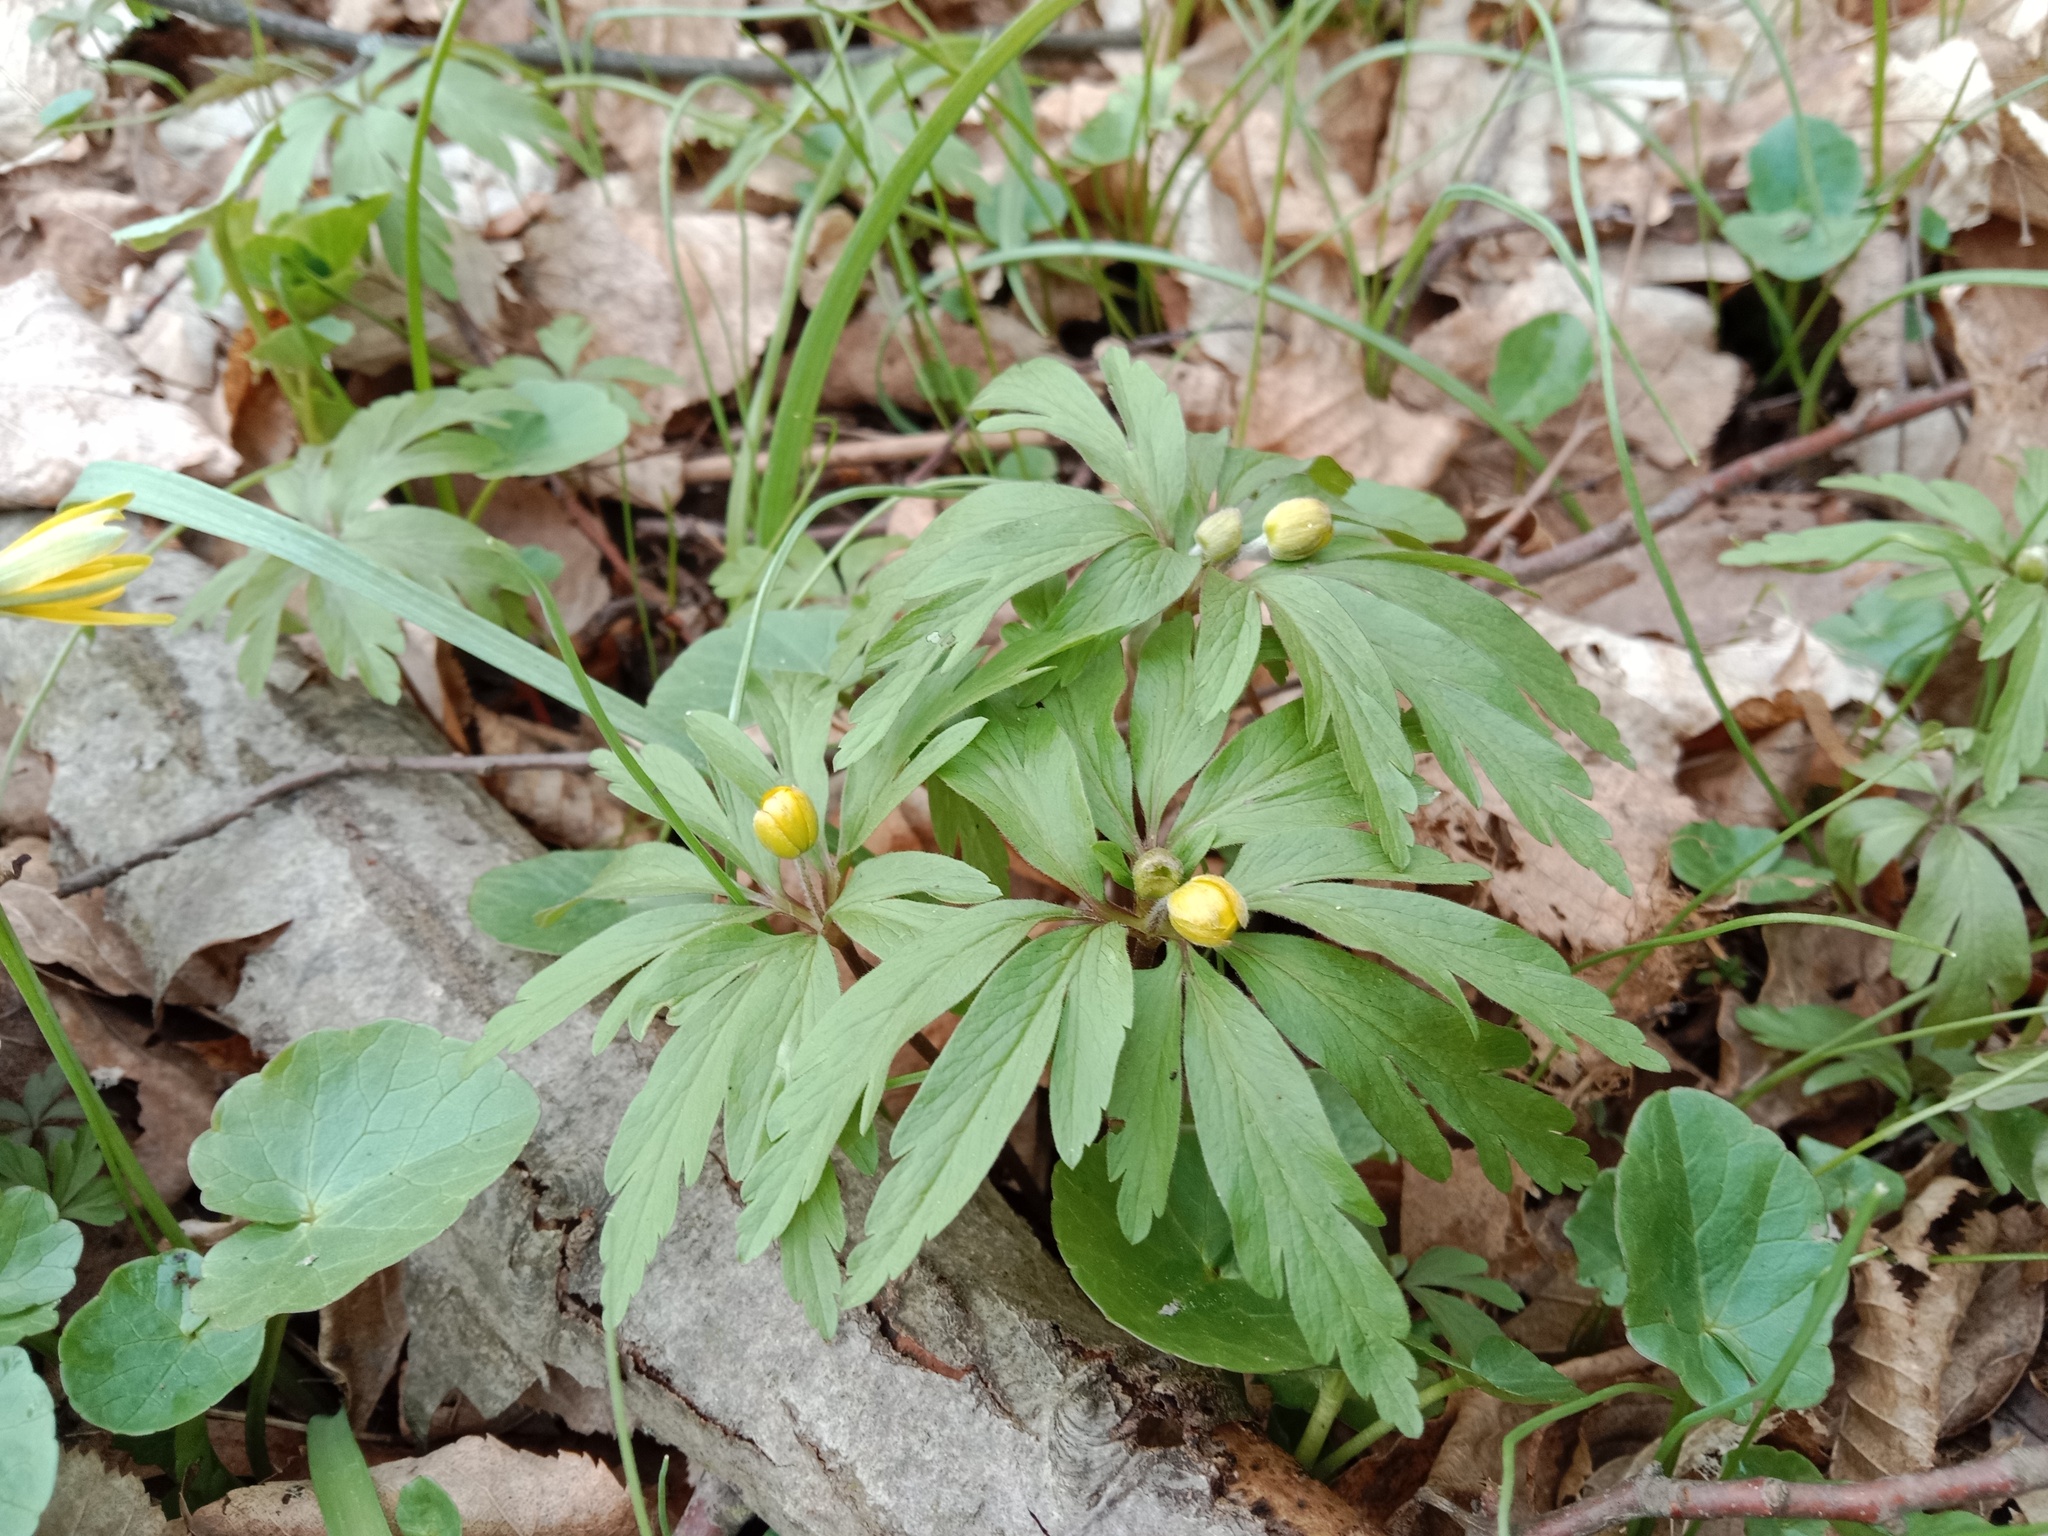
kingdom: Plantae
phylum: Tracheophyta
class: Magnoliopsida
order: Ranunculales
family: Ranunculaceae
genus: Anemone
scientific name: Anemone ranunculoides
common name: Yellow anemone
